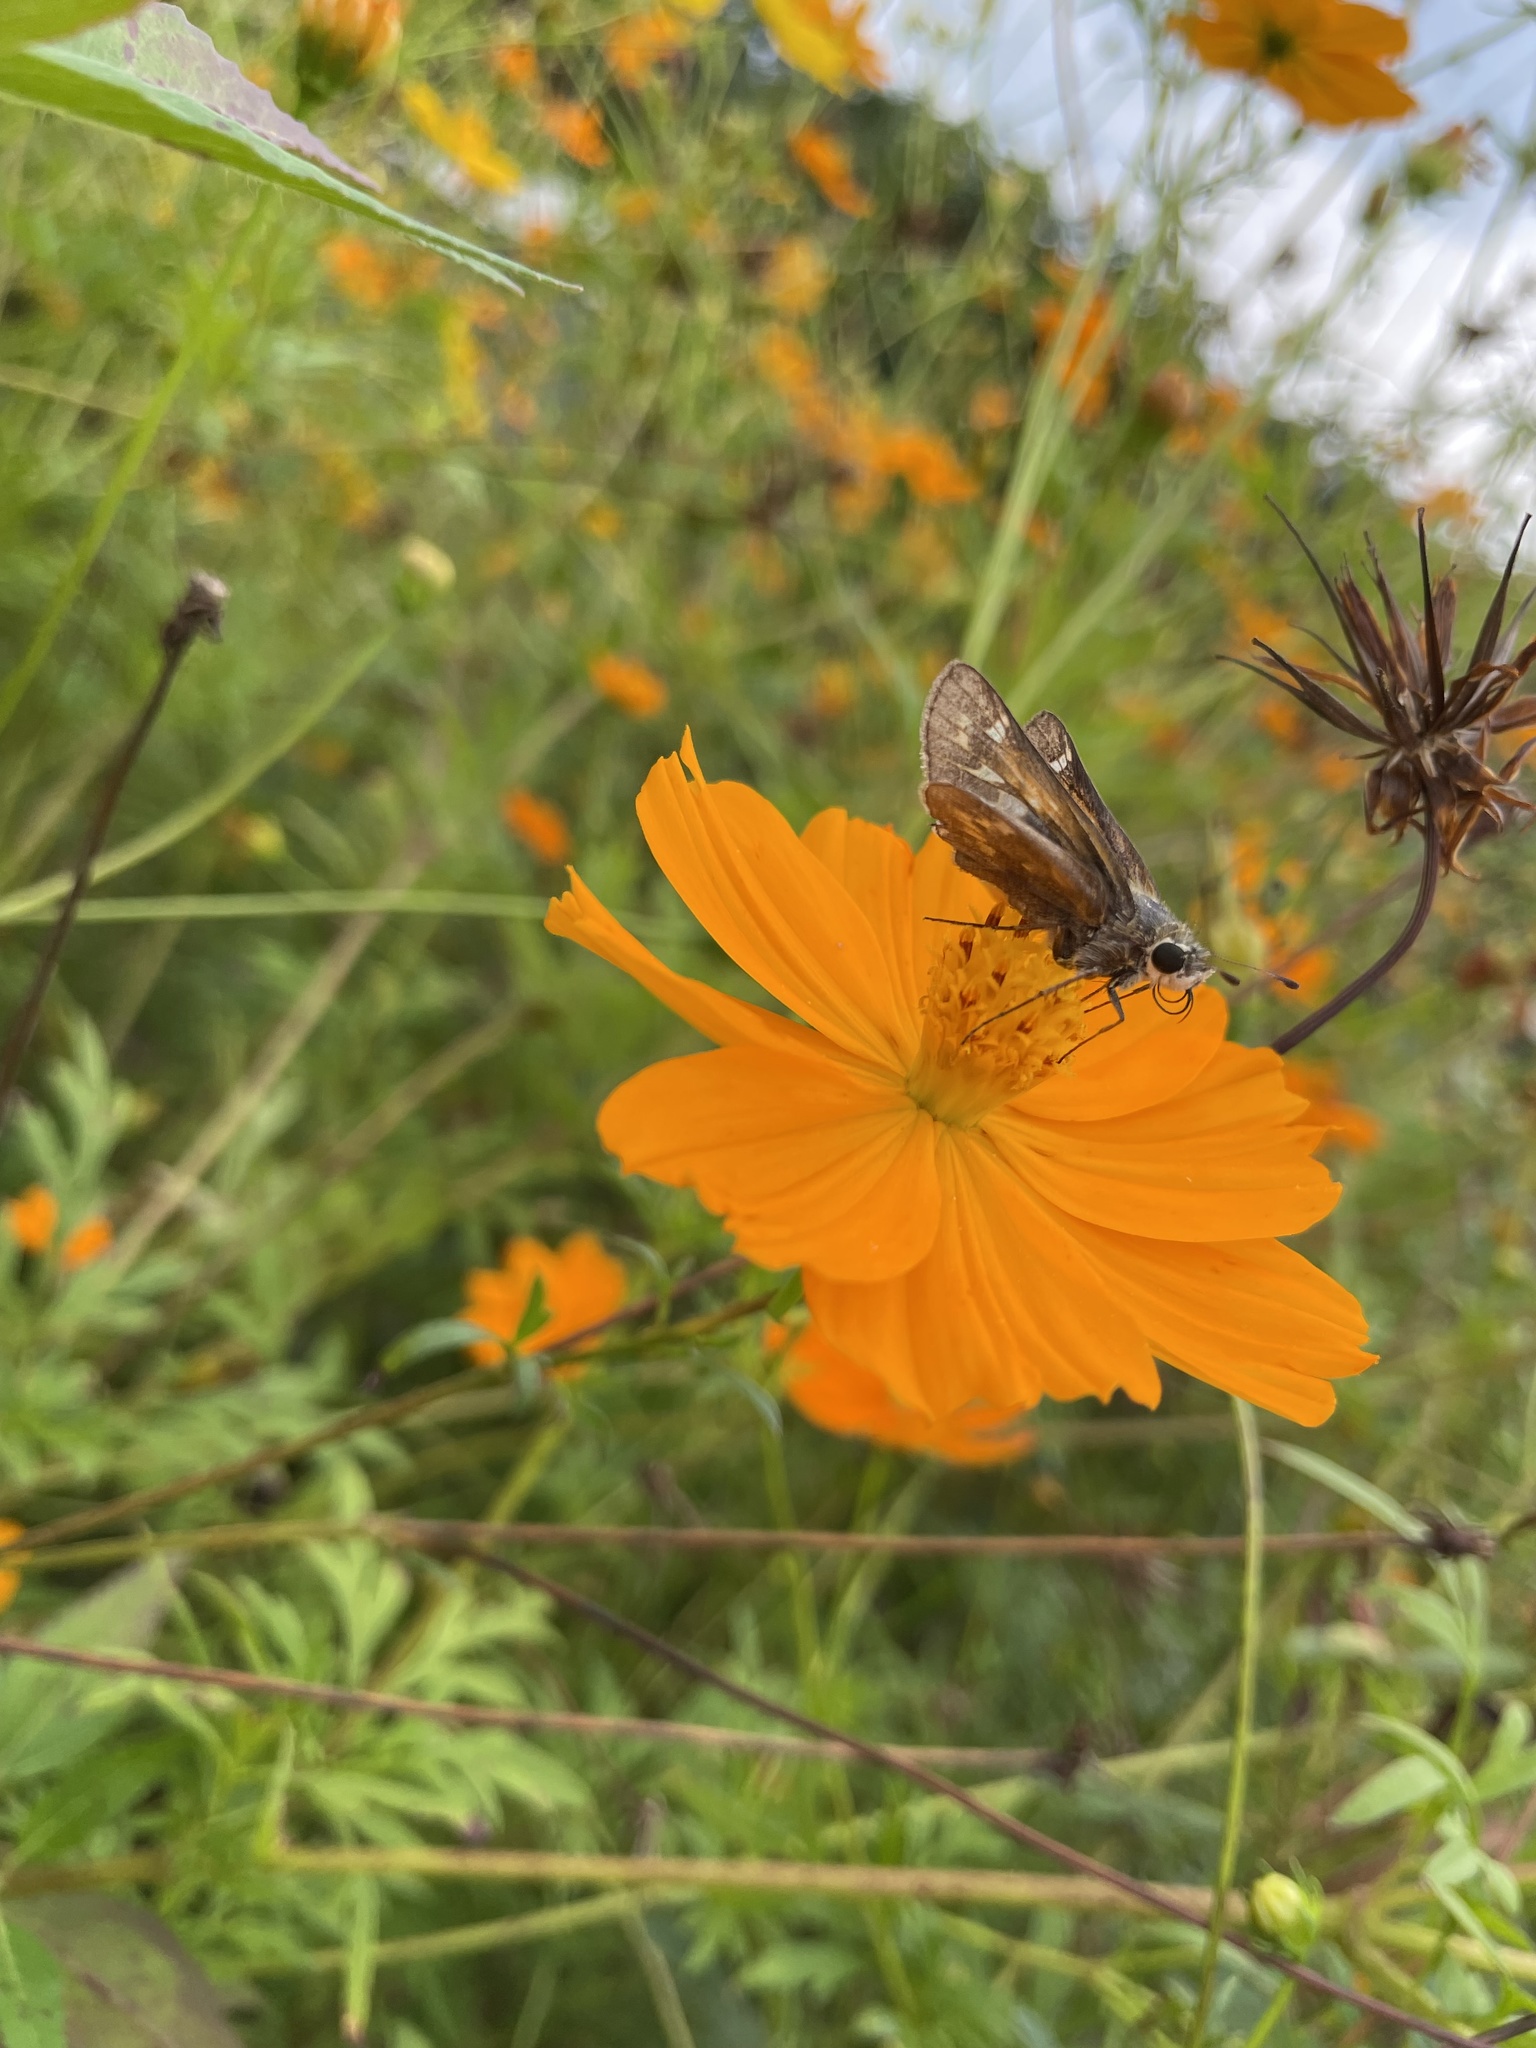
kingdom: Animalia
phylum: Arthropoda
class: Insecta
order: Lepidoptera
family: Hesperiidae
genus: Atalopedes
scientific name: Atalopedes
